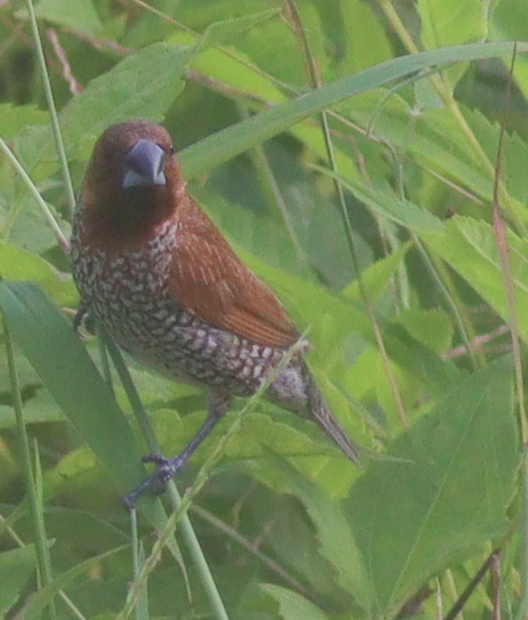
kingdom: Animalia
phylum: Chordata
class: Aves
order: Passeriformes
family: Estrildidae
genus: Lonchura
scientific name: Lonchura punctulata
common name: Scaly-breasted munia
